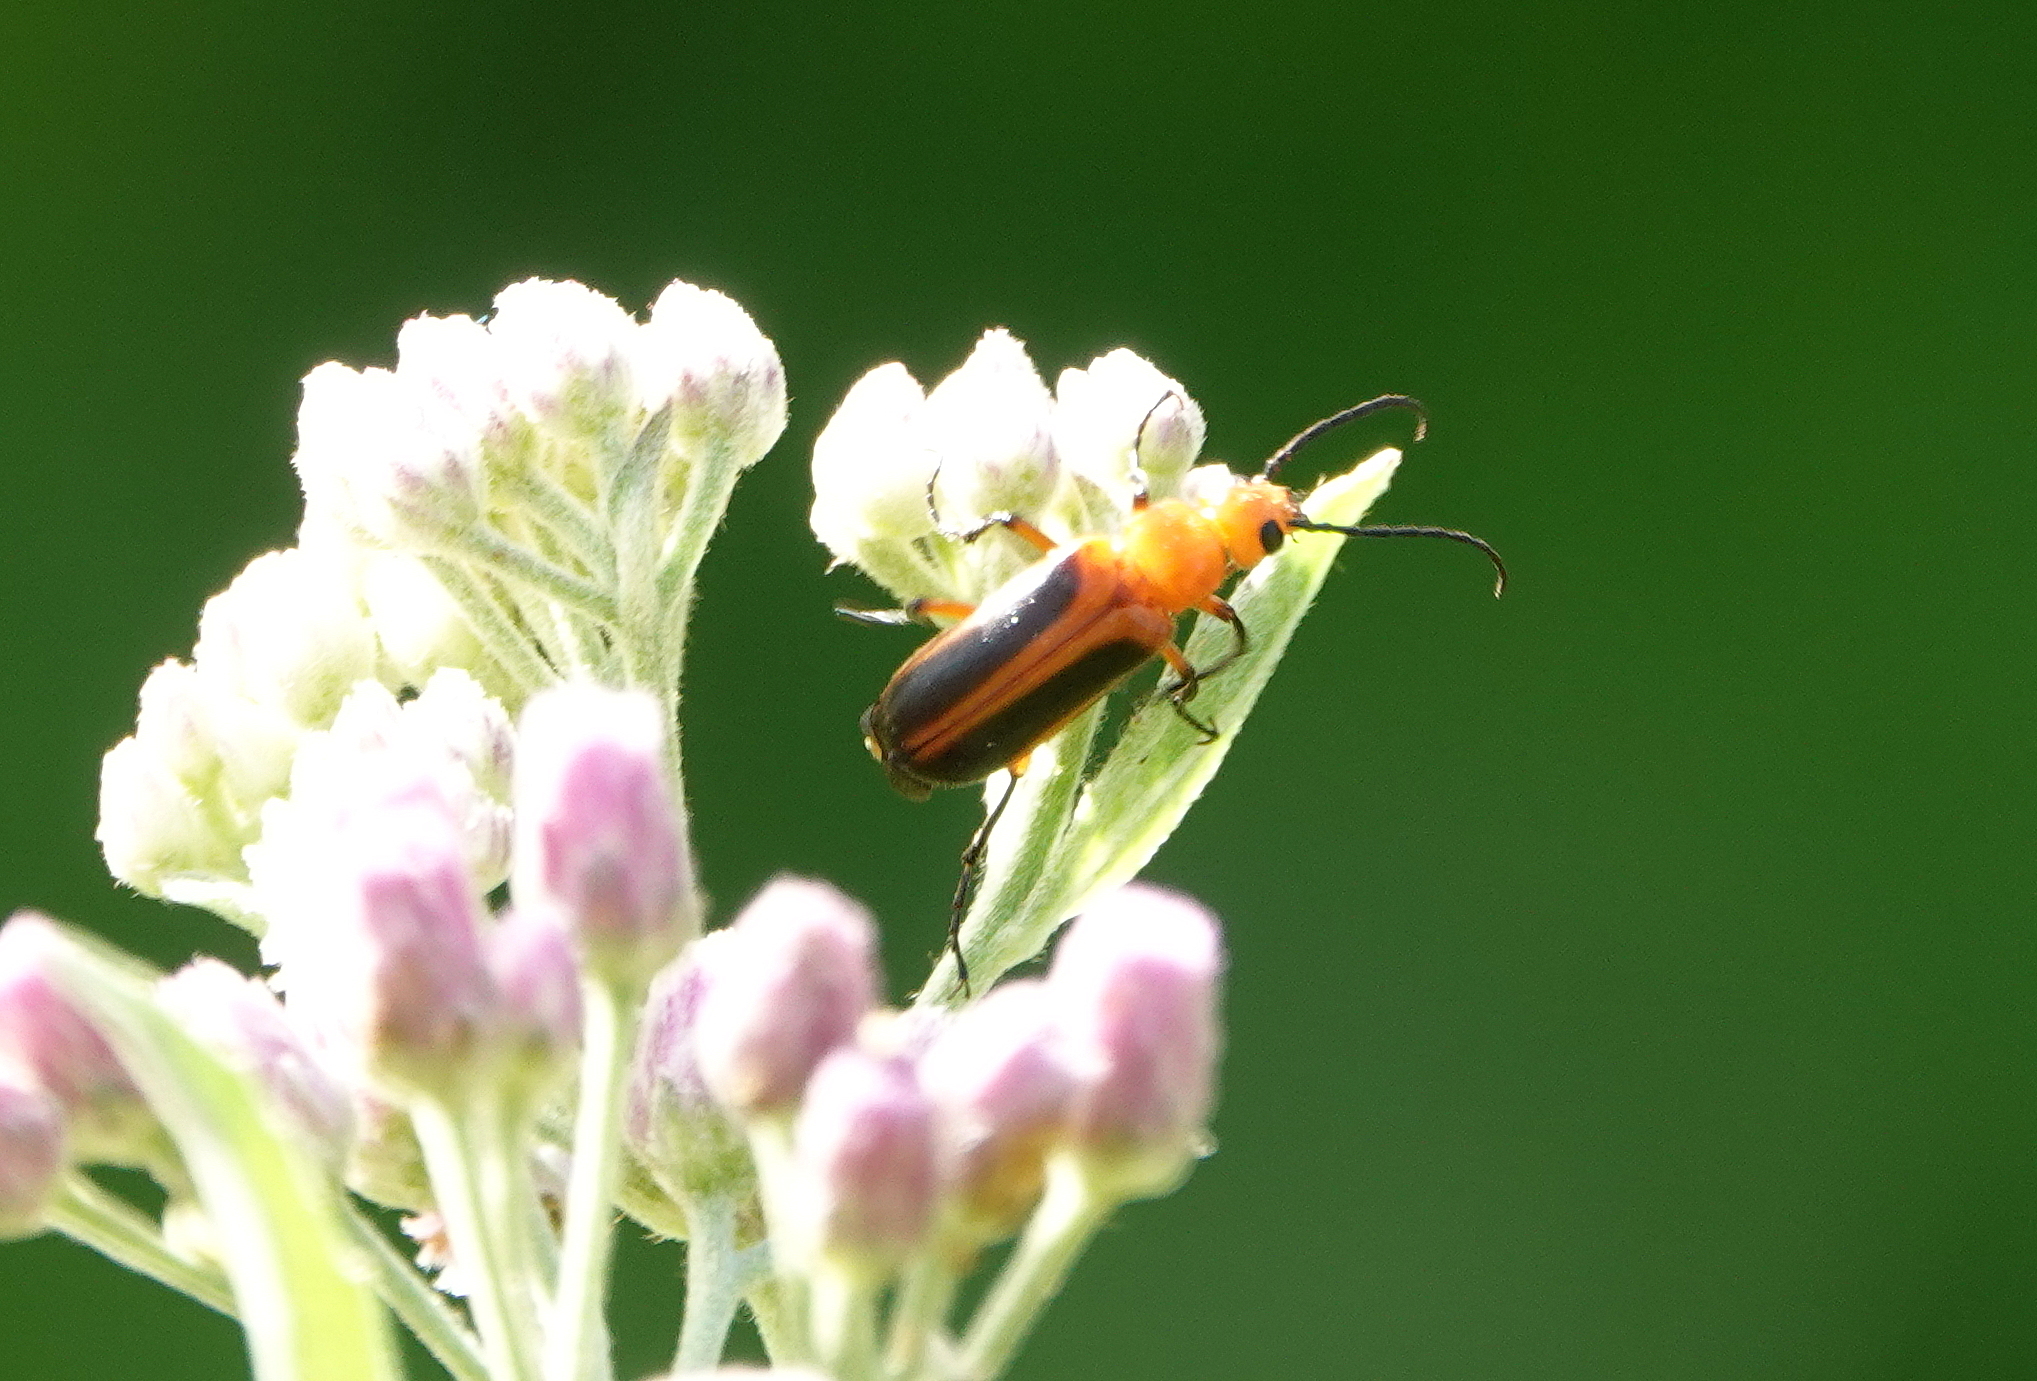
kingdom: Animalia
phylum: Arthropoda
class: Insecta
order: Coleoptera
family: Meloidae
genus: Nemognatha
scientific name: Nemognatha piazata
